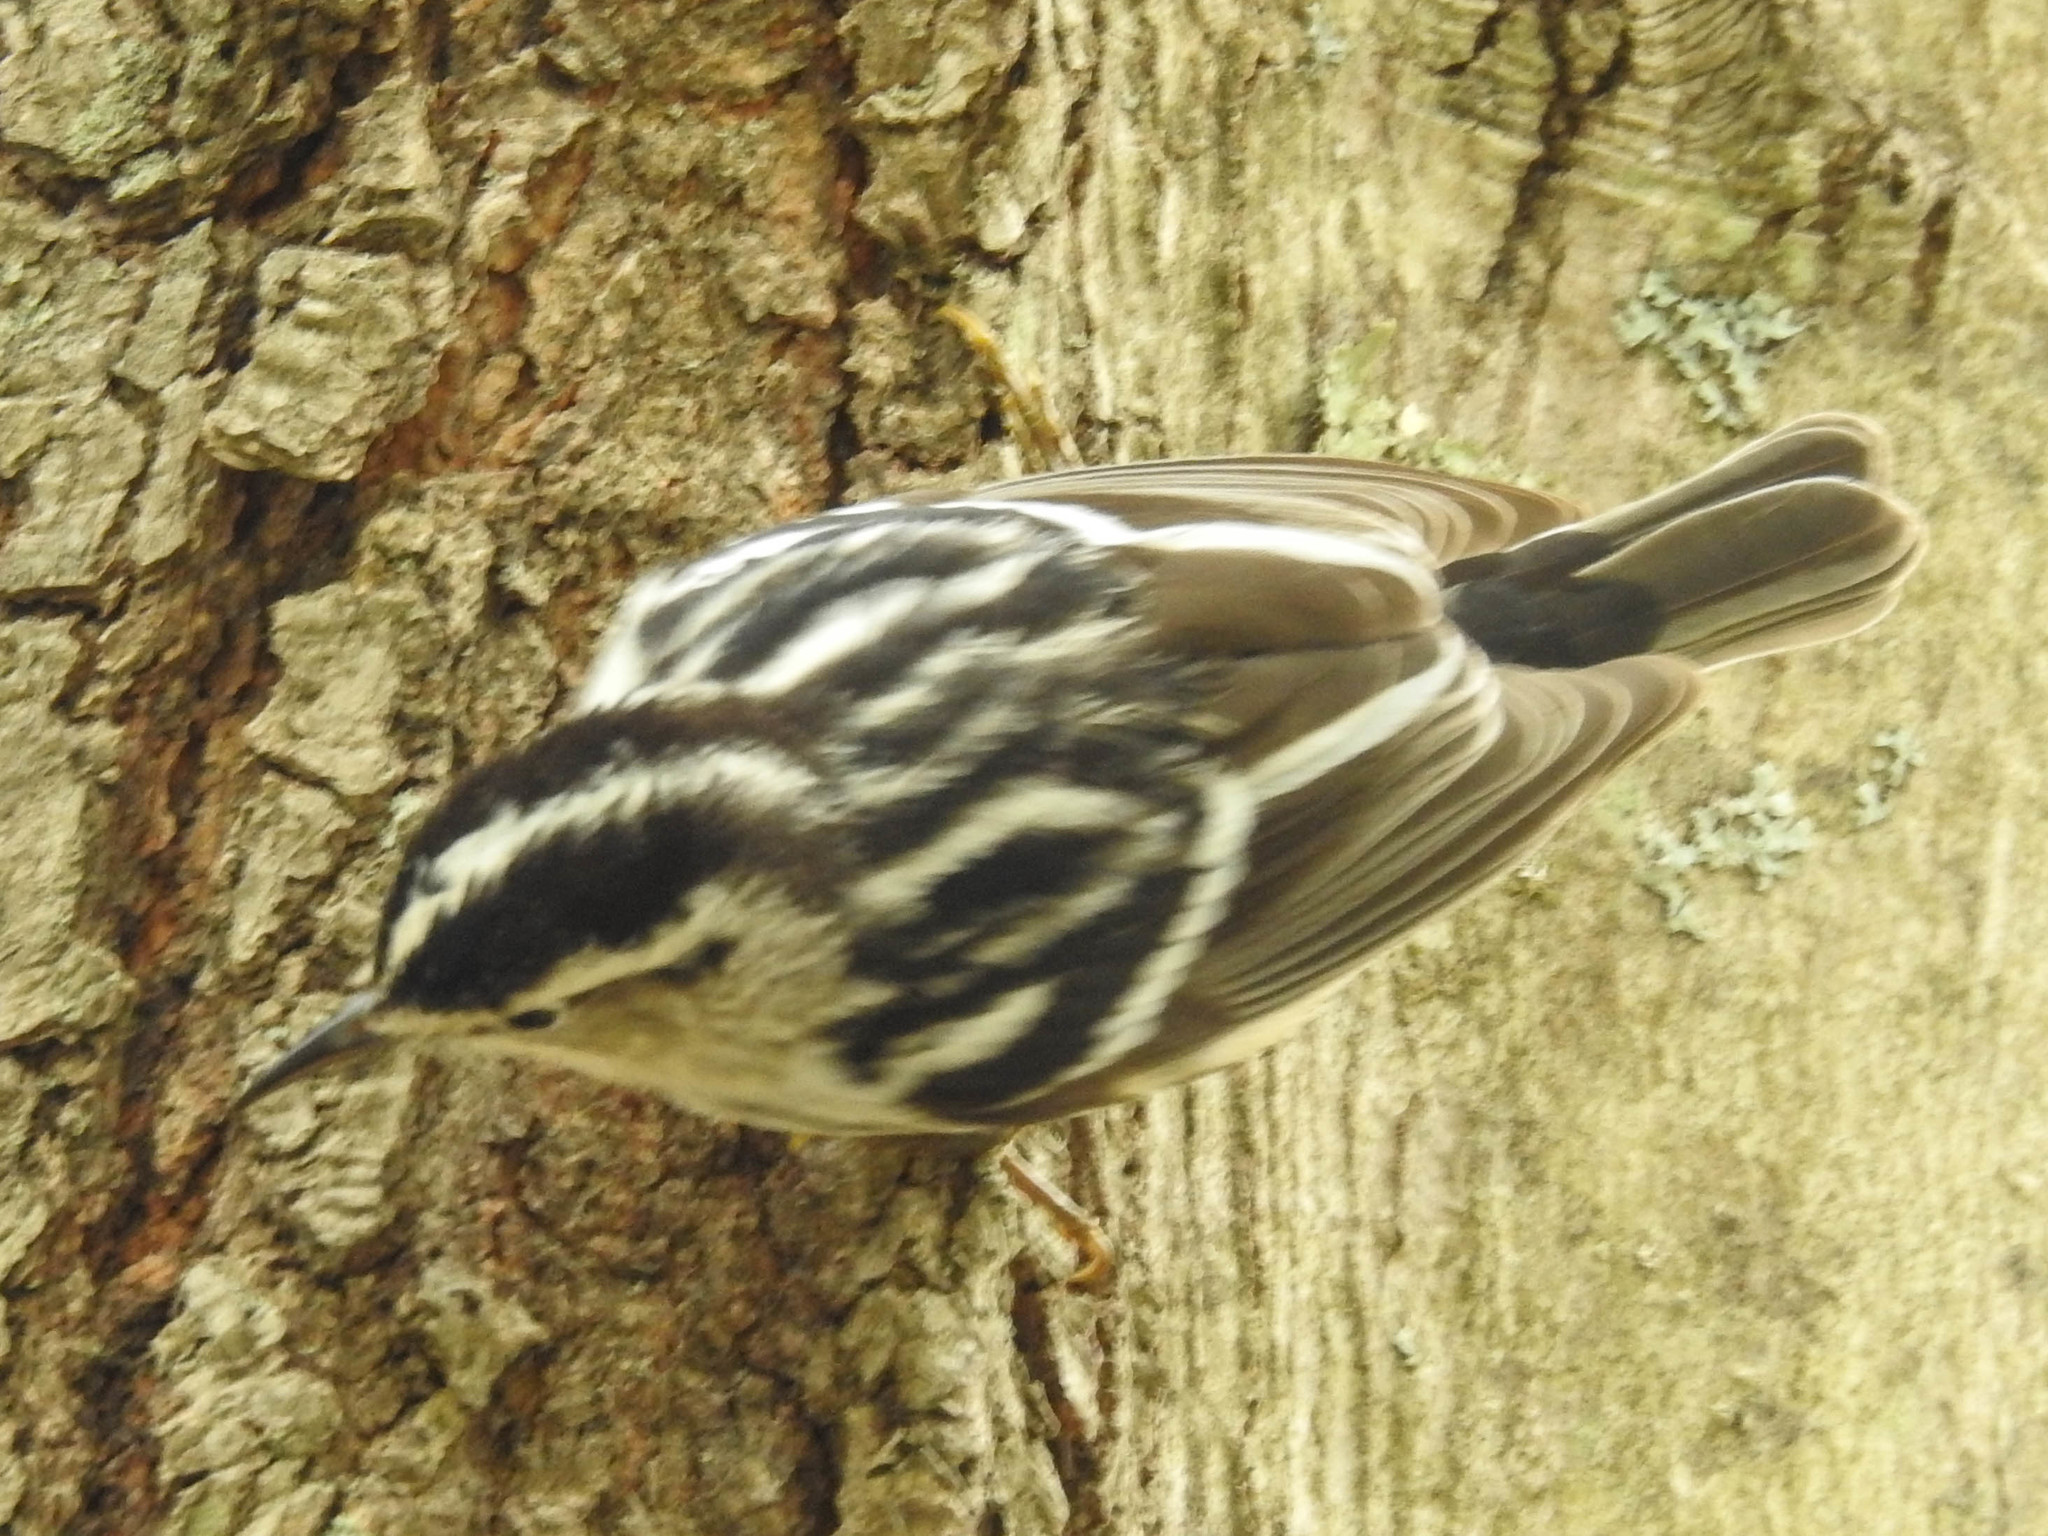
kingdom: Animalia
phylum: Chordata
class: Aves
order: Passeriformes
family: Parulidae
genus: Mniotilta
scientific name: Mniotilta varia
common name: Black-and-white warbler
